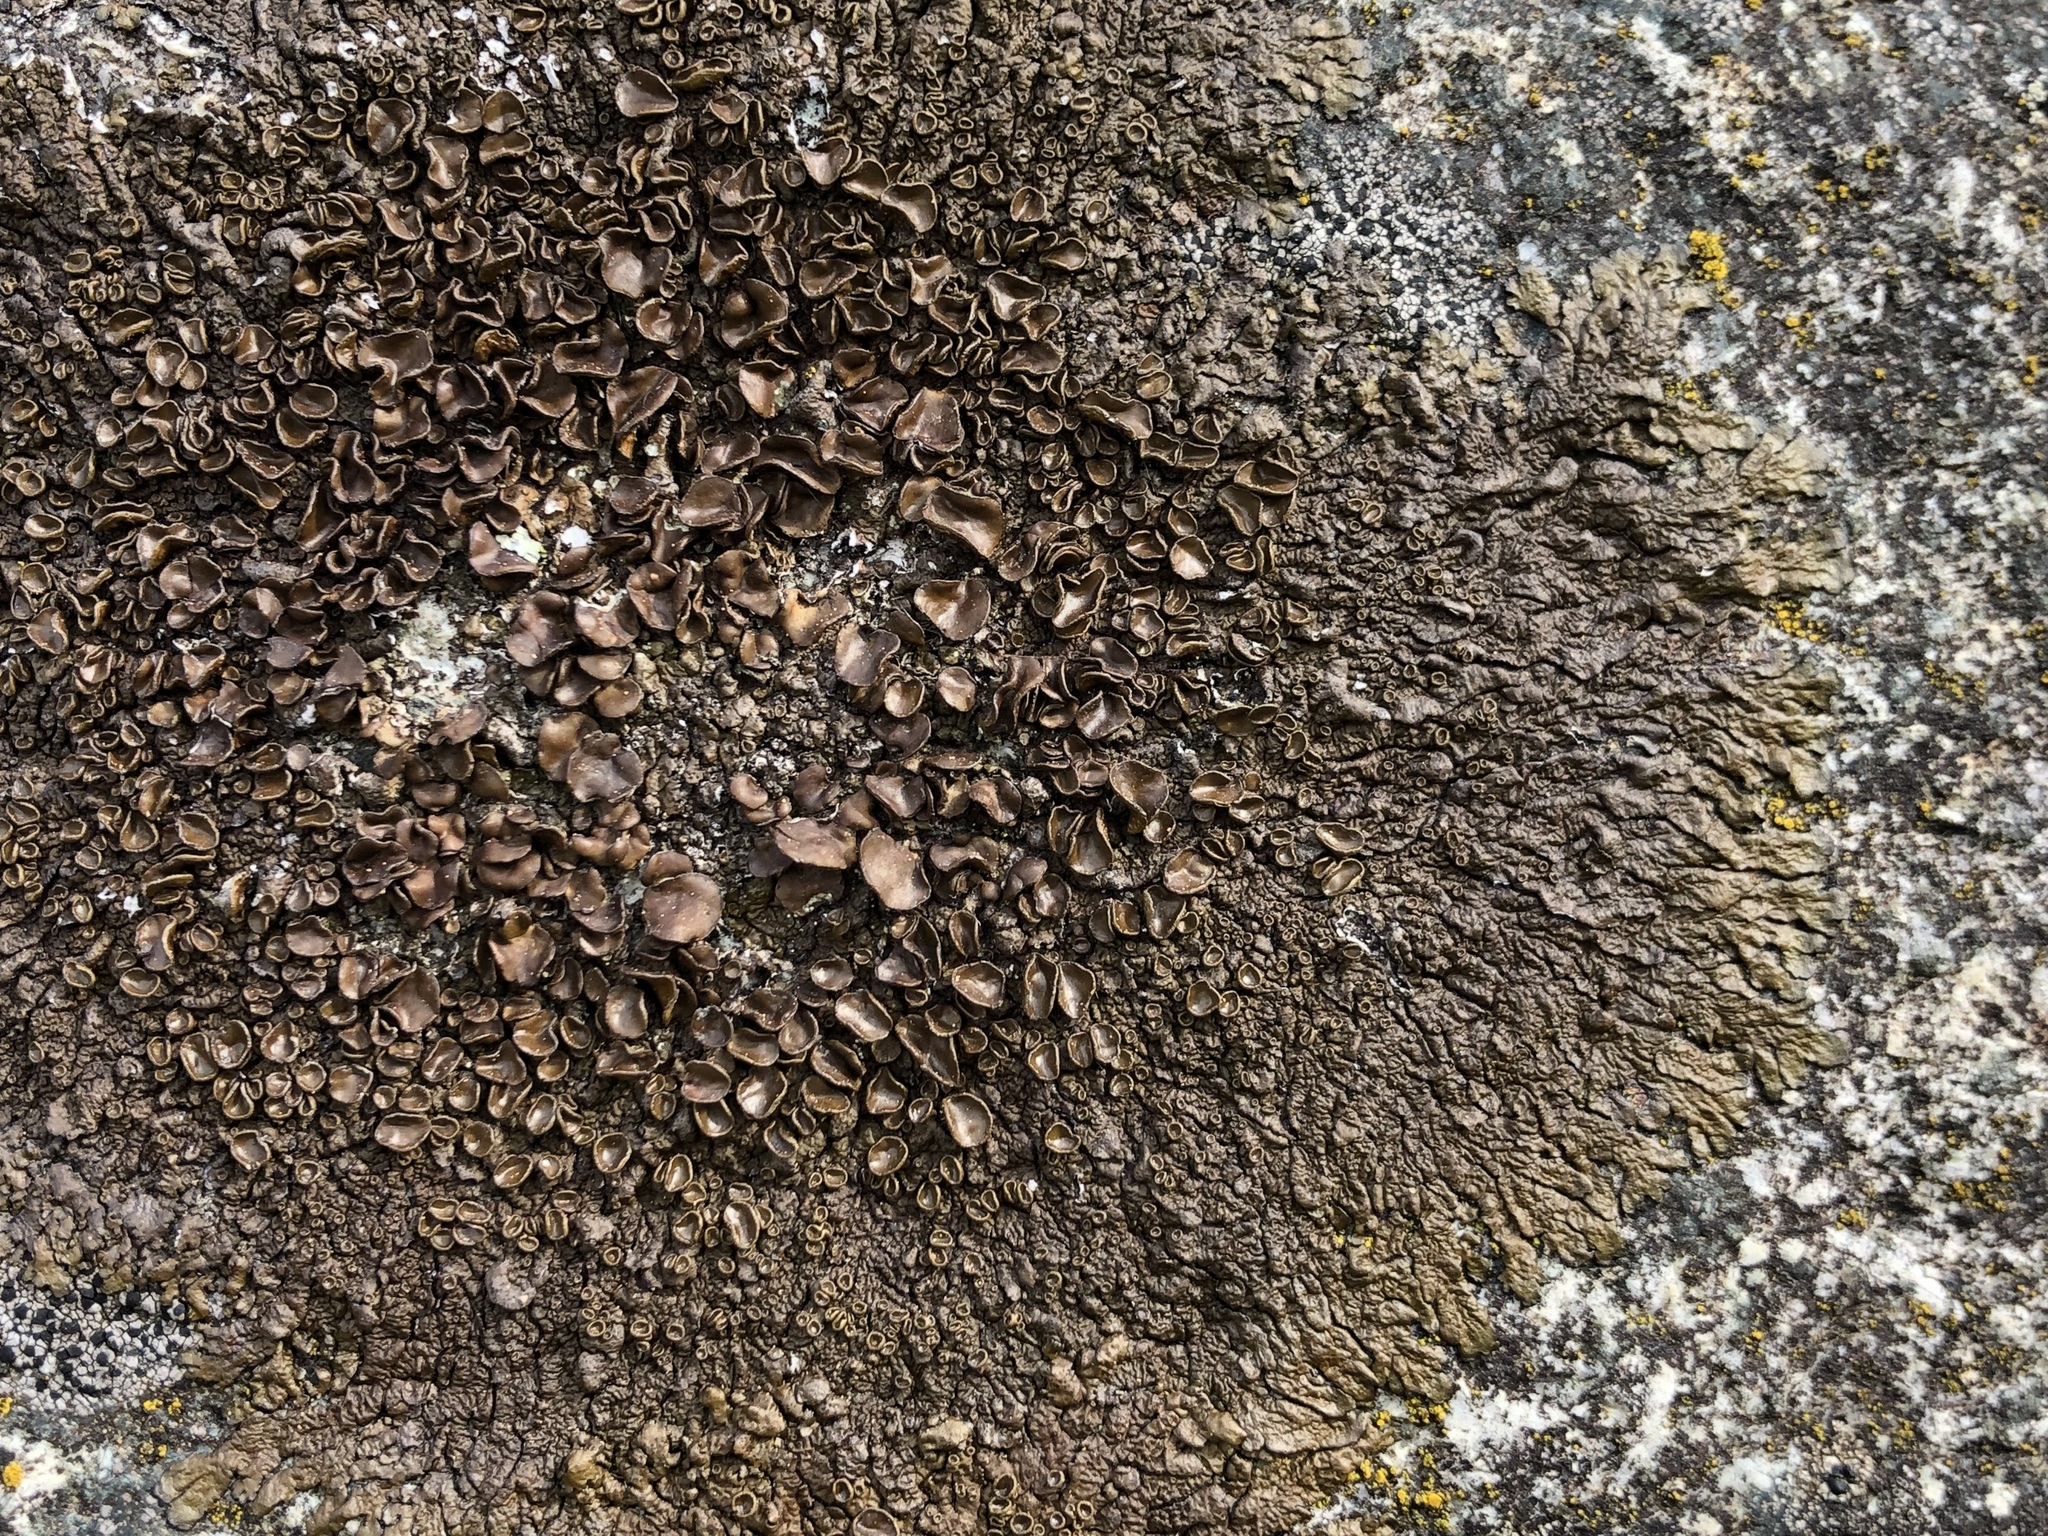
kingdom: Fungi
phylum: Ascomycota
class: Lecanoromycetes
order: Lecanorales
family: Parmeliaceae
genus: Xanthoparmelia
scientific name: Xanthoparmelia pulla
